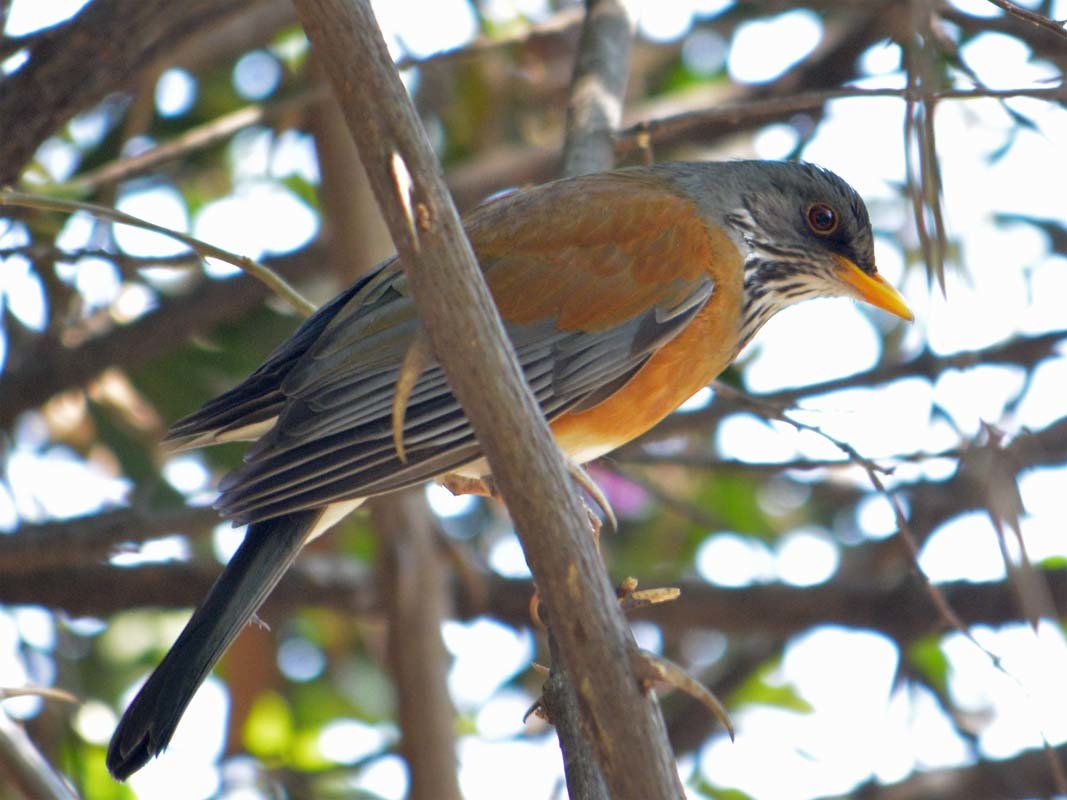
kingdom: Animalia
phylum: Chordata
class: Aves
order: Passeriformes
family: Turdidae
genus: Turdus
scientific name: Turdus rufopalliatus
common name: Rufous-backed robin
